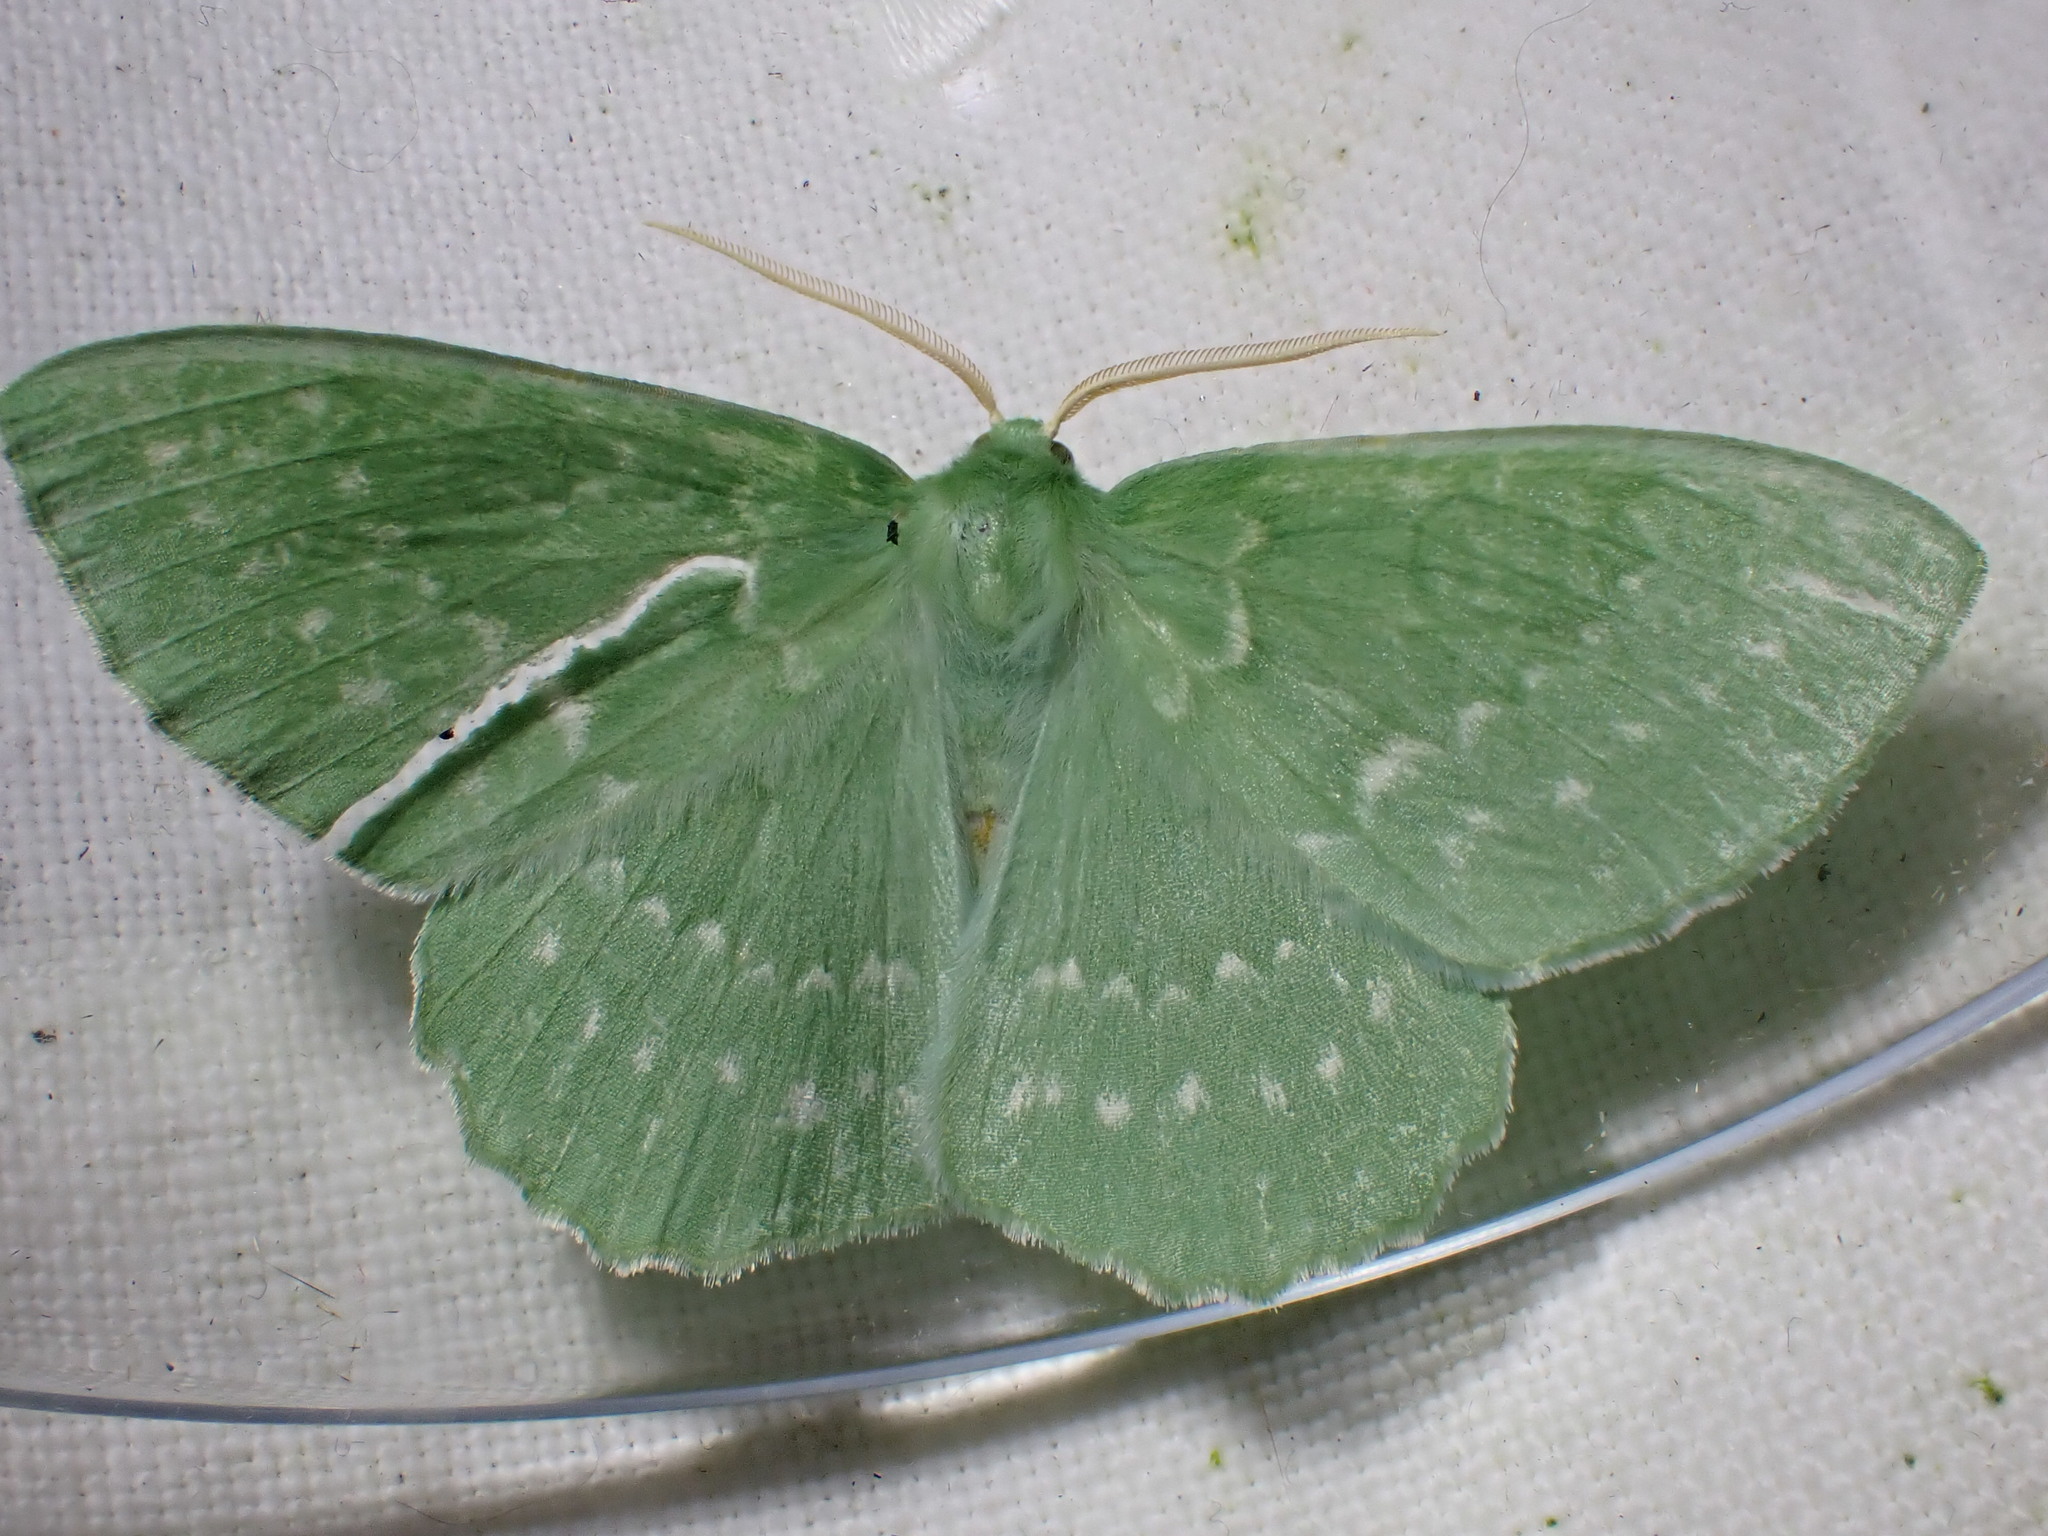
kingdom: Animalia
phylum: Arthropoda
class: Insecta
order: Lepidoptera
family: Geometridae
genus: Geometra
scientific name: Geometra papilionaria
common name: Large emerald
